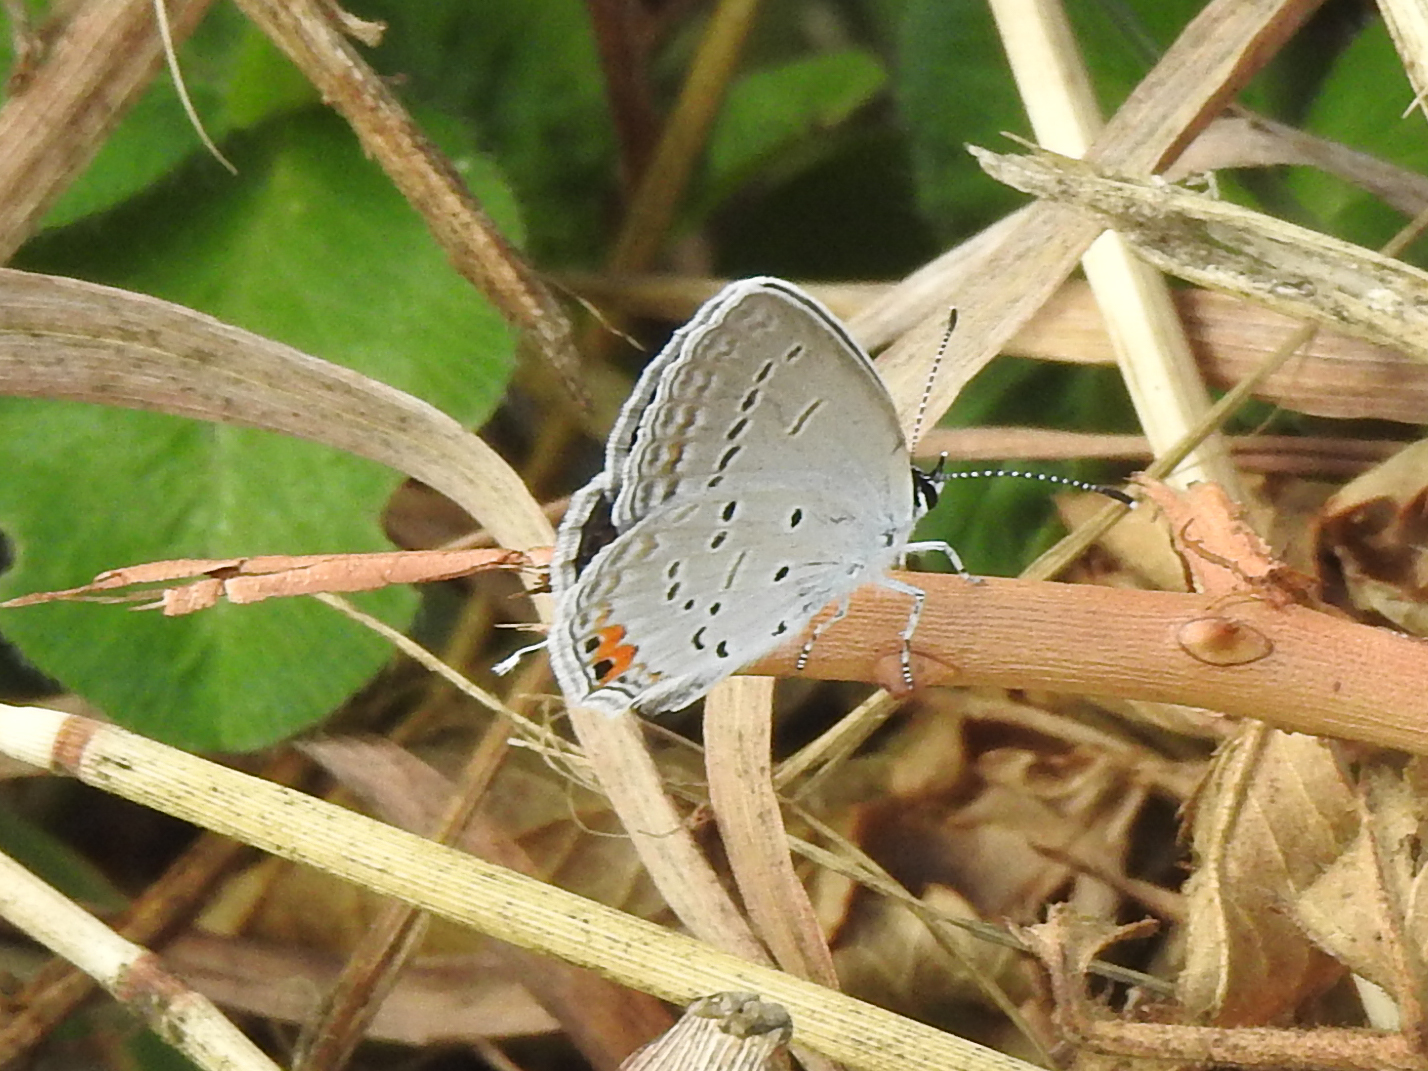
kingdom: Animalia
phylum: Arthropoda
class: Insecta
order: Lepidoptera
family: Lycaenidae
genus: Elkalyce
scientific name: Elkalyce comyntas
